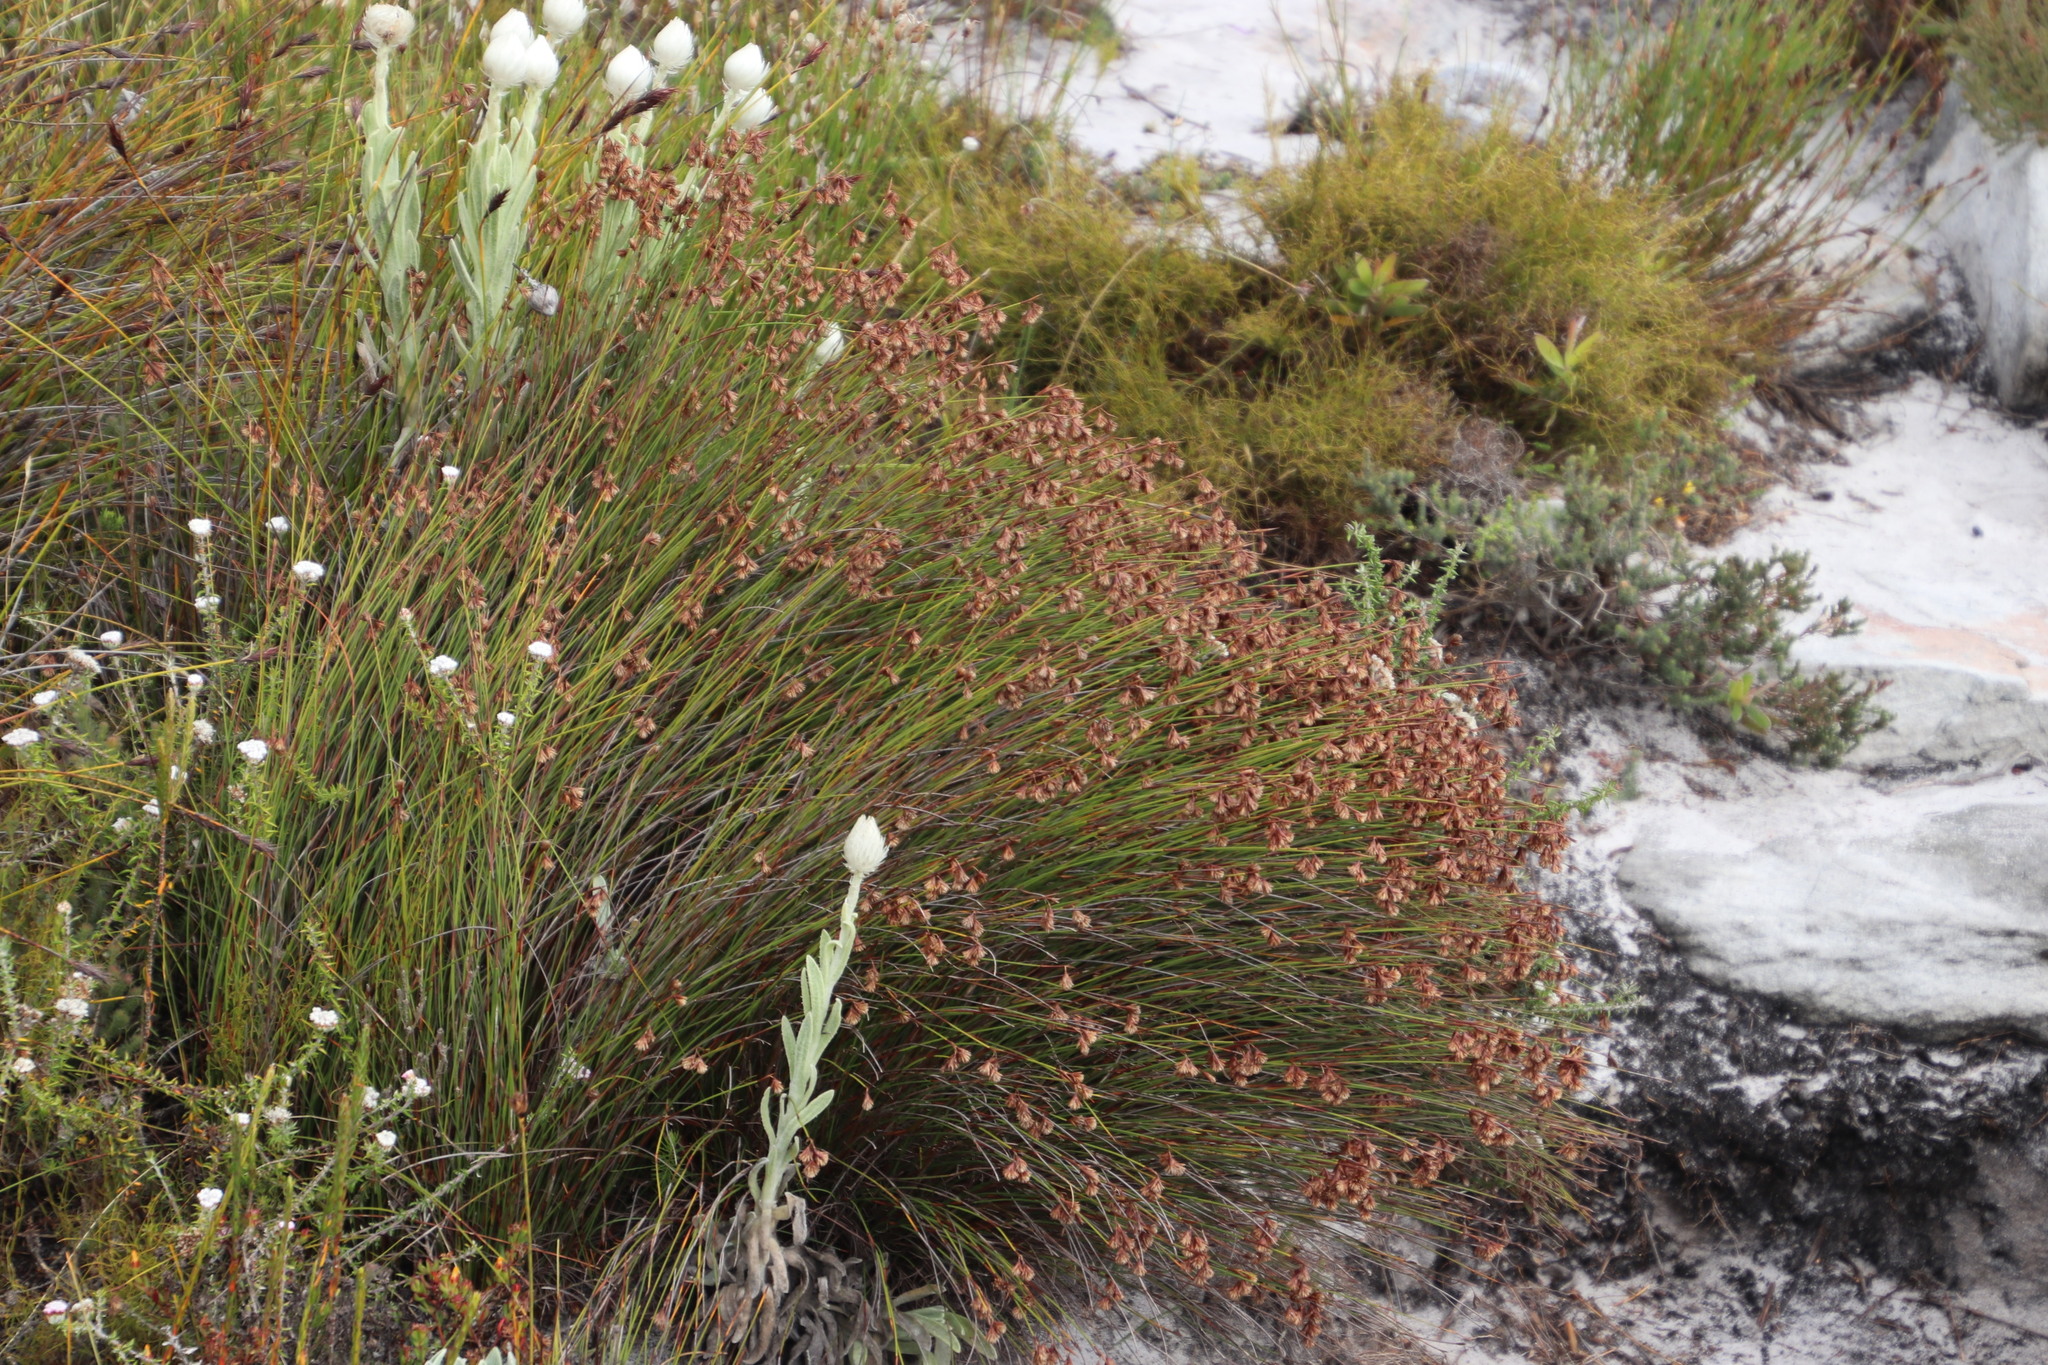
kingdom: Plantae
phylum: Tracheophyta
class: Liliopsida
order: Poales
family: Restionaceae
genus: Staberoha
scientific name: Staberoha cernua
